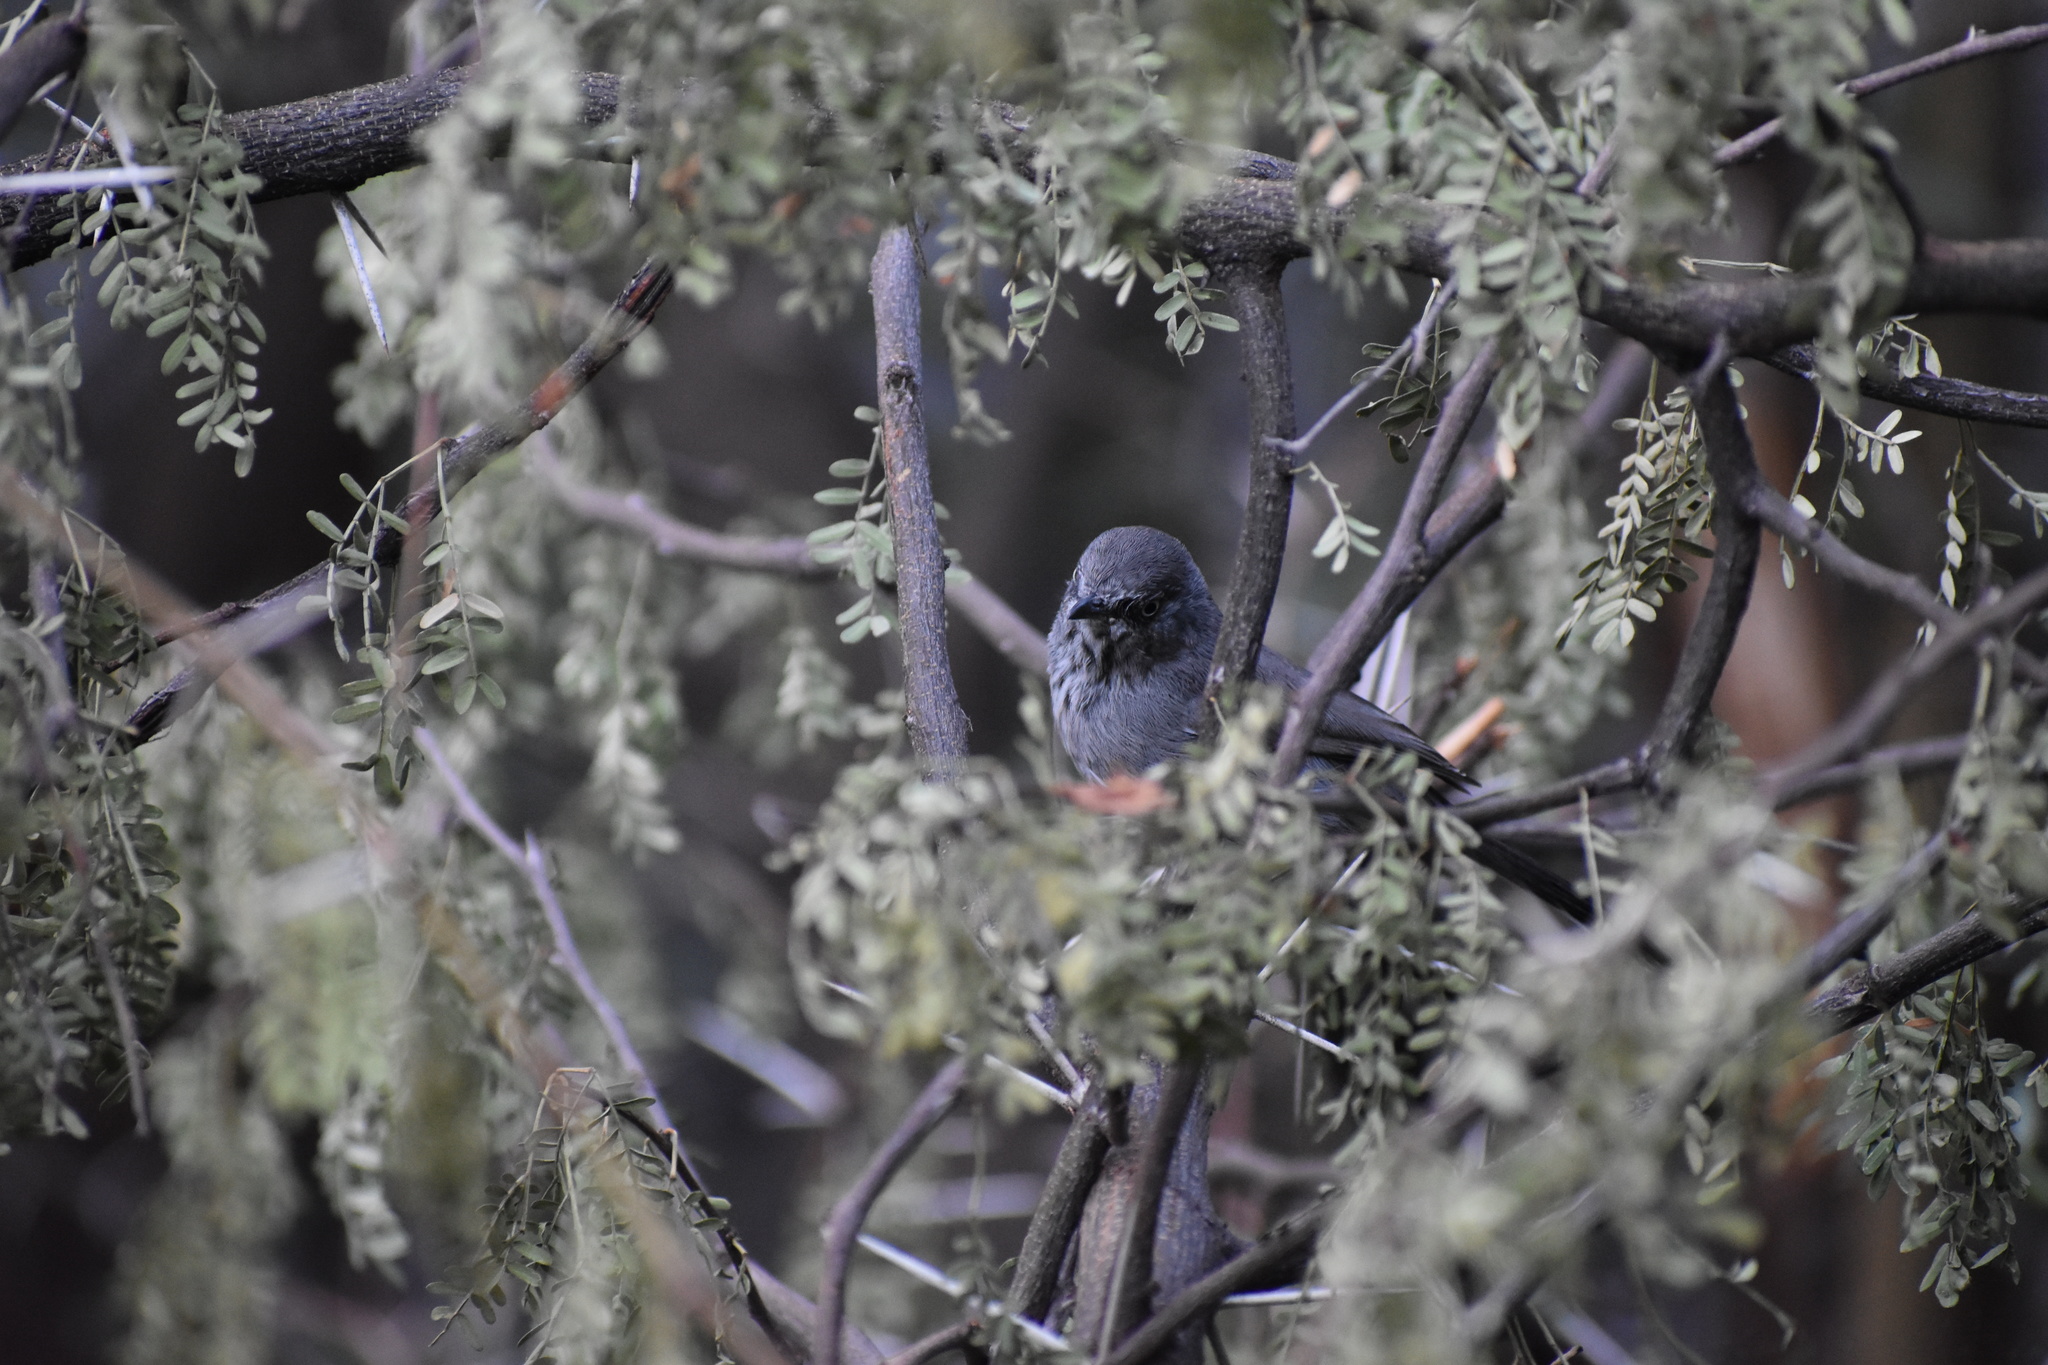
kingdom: Animalia
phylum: Chordata
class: Aves
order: Passeriformes
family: Sylviidae
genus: Curruca
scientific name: Curruca subcoerulea
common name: Chestnut-vented warbler
